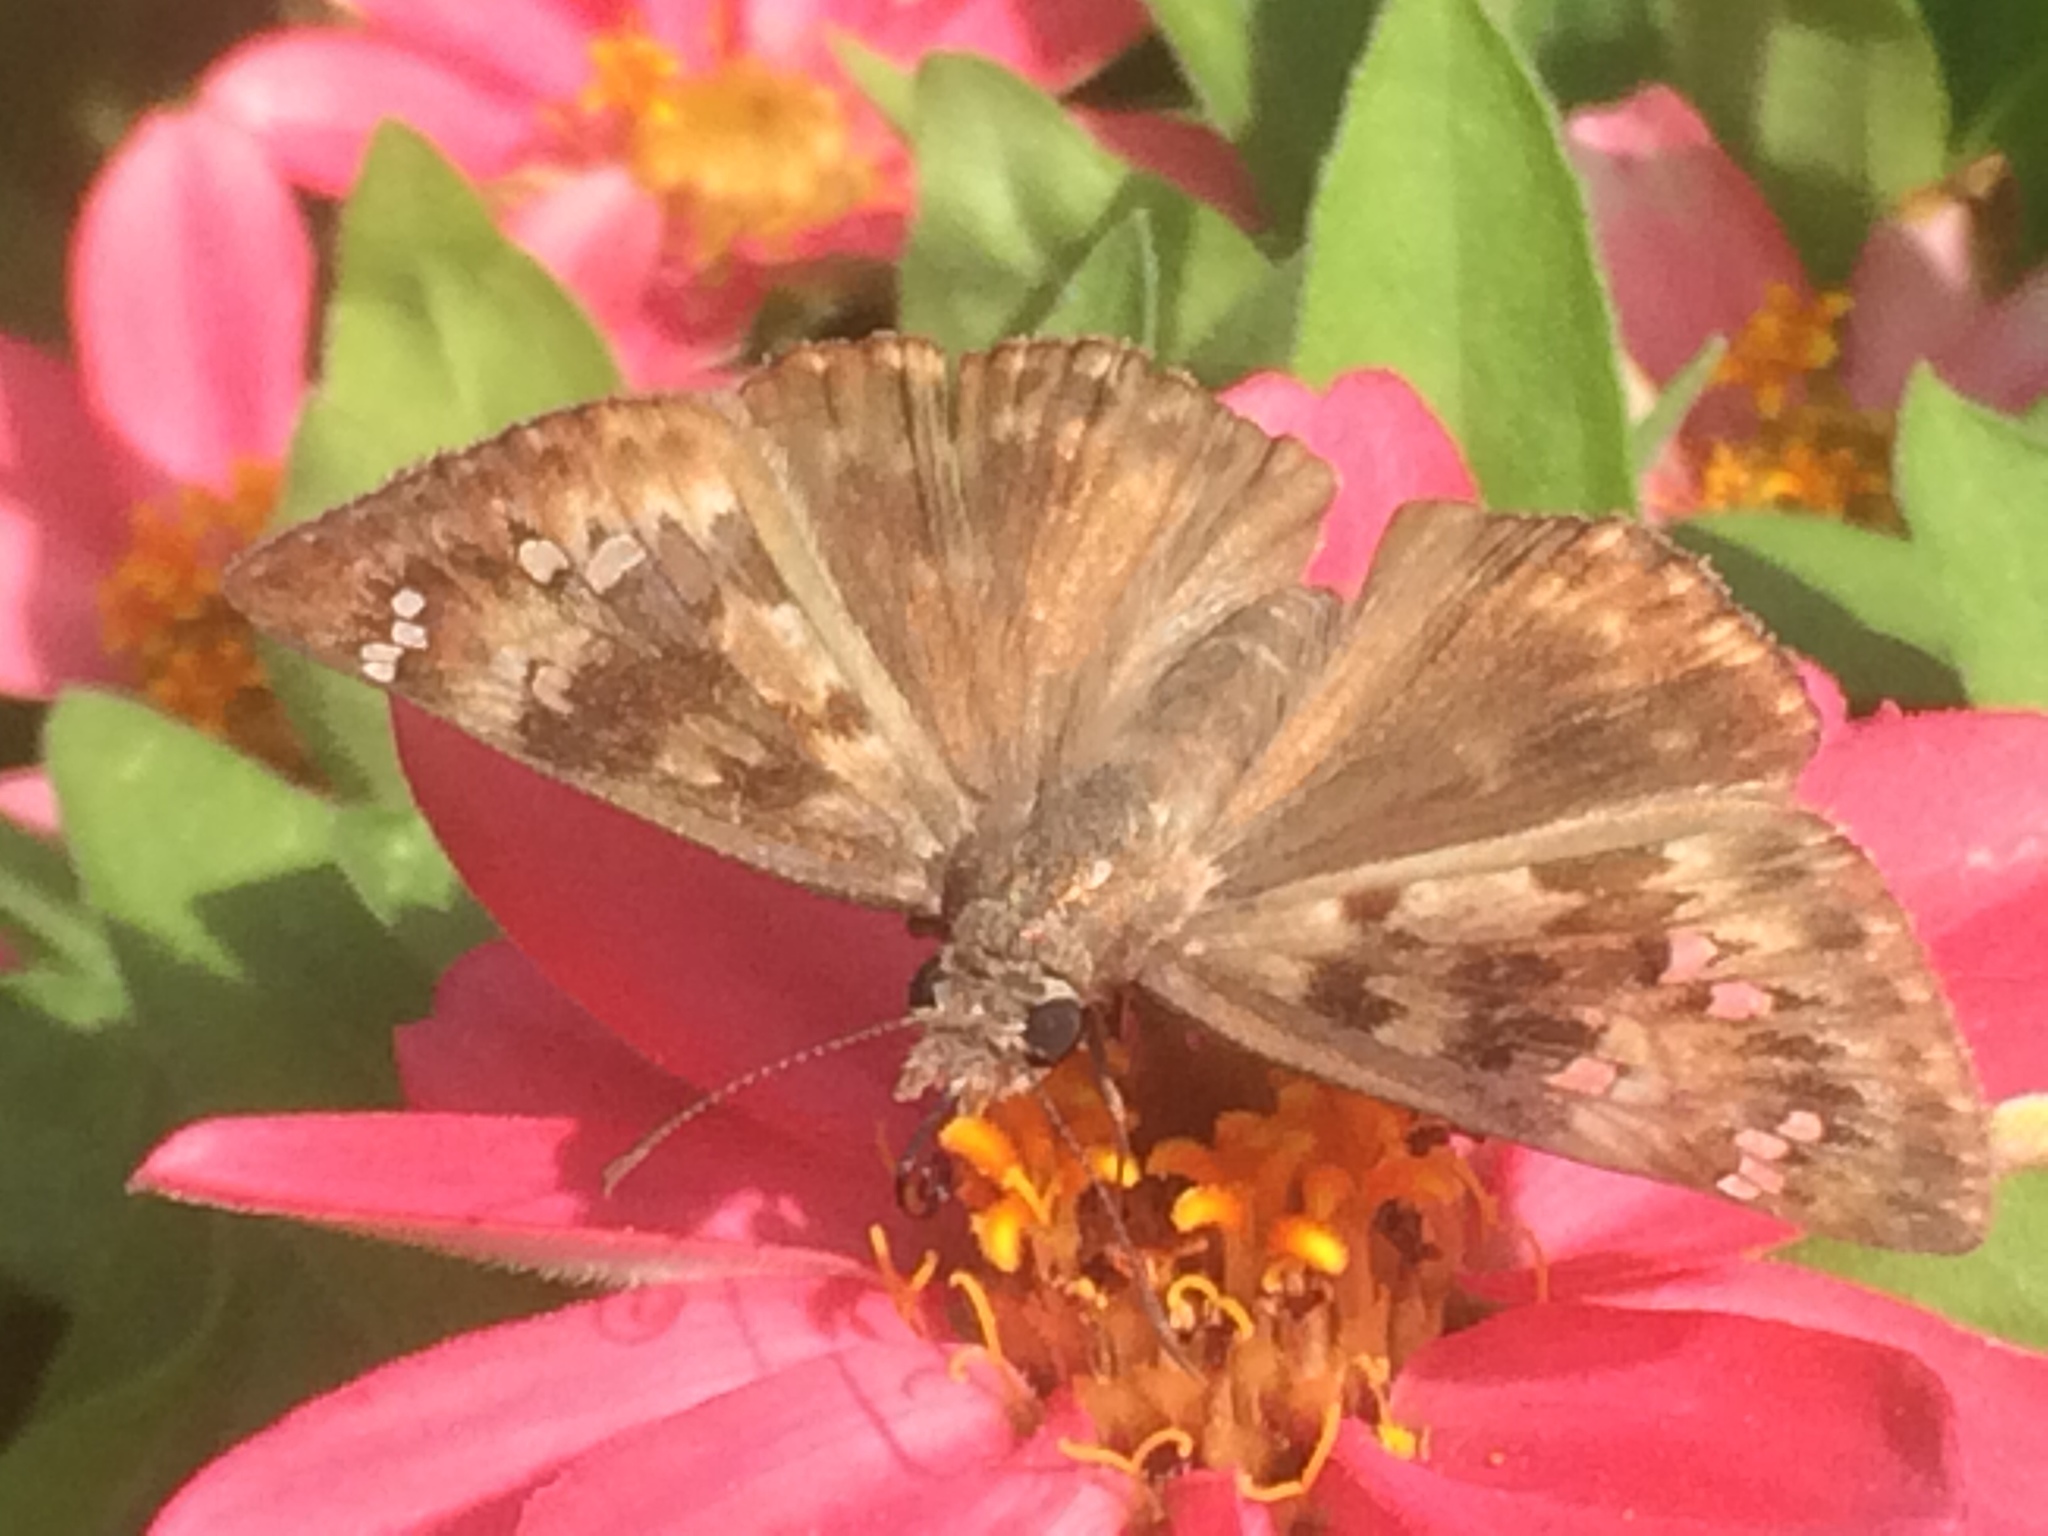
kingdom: Animalia
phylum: Arthropoda
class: Insecta
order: Lepidoptera
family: Hesperiidae
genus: Erynnis
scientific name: Erynnis horatius
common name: Horace's duskywing
